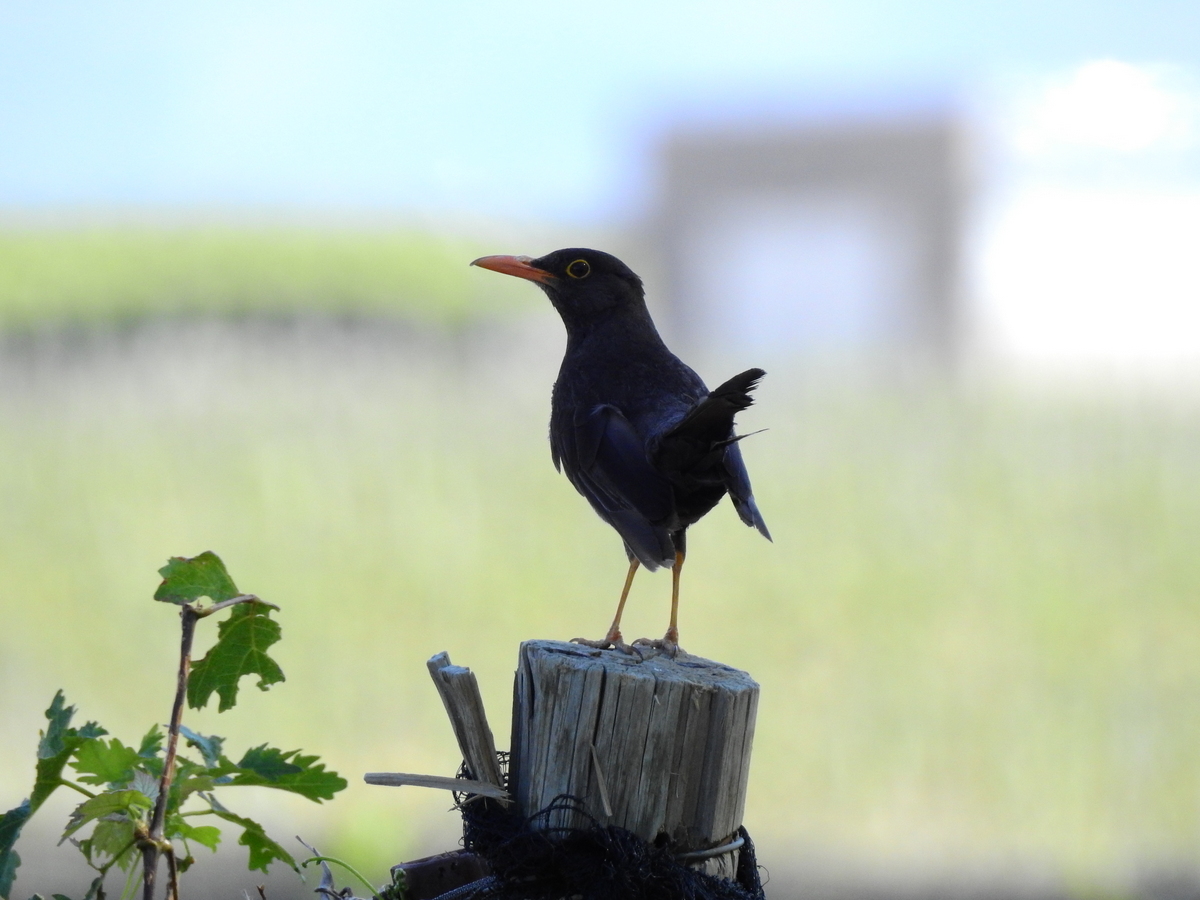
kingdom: Animalia
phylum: Chordata
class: Aves
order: Passeriformes
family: Turdidae
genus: Turdus
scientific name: Turdus chiguanco
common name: Chiguanco thrush
